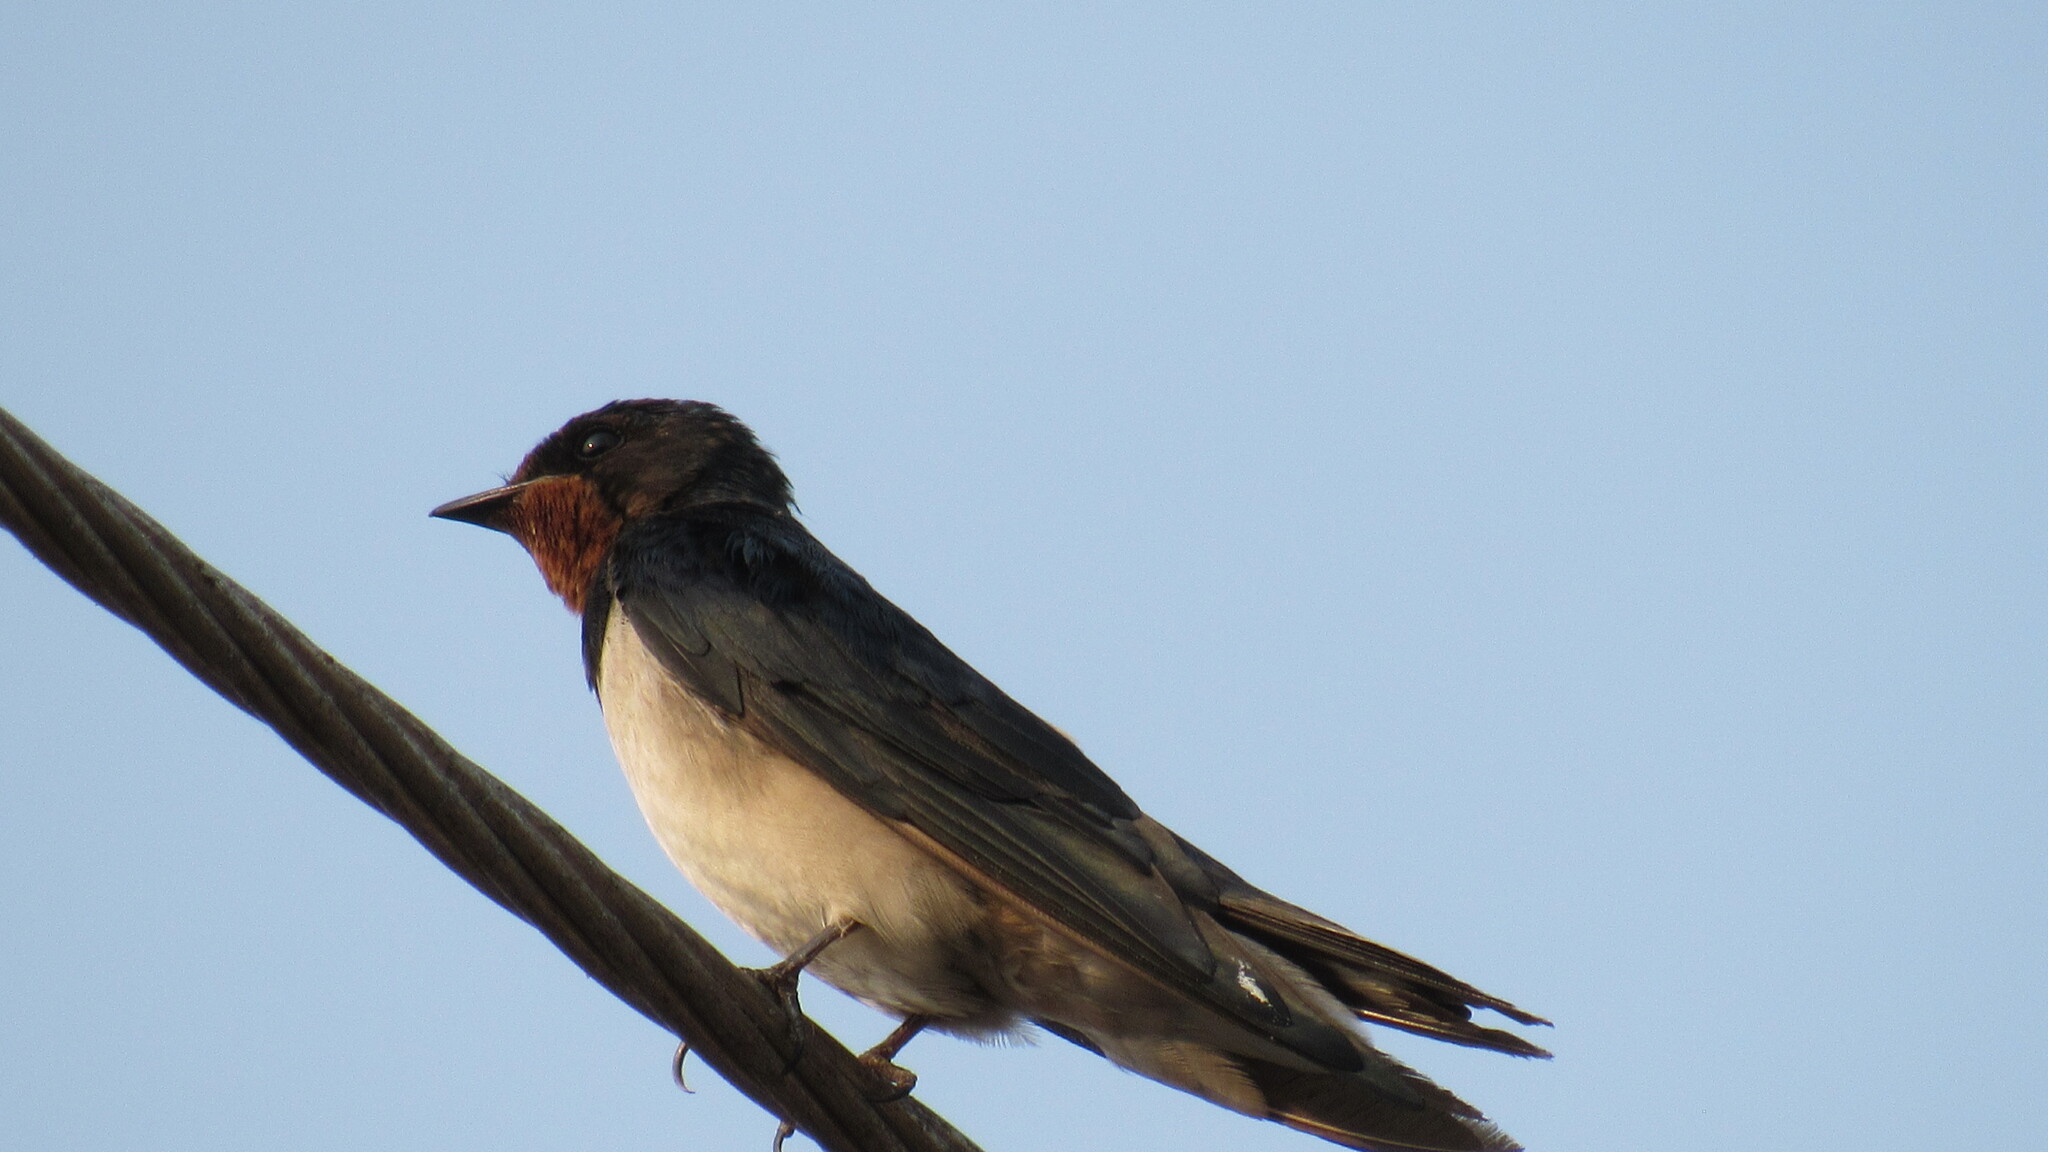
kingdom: Animalia
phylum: Chordata
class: Aves
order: Passeriformes
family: Hirundinidae
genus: Hirundo
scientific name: Hirundo rustica
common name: Barn swallow
